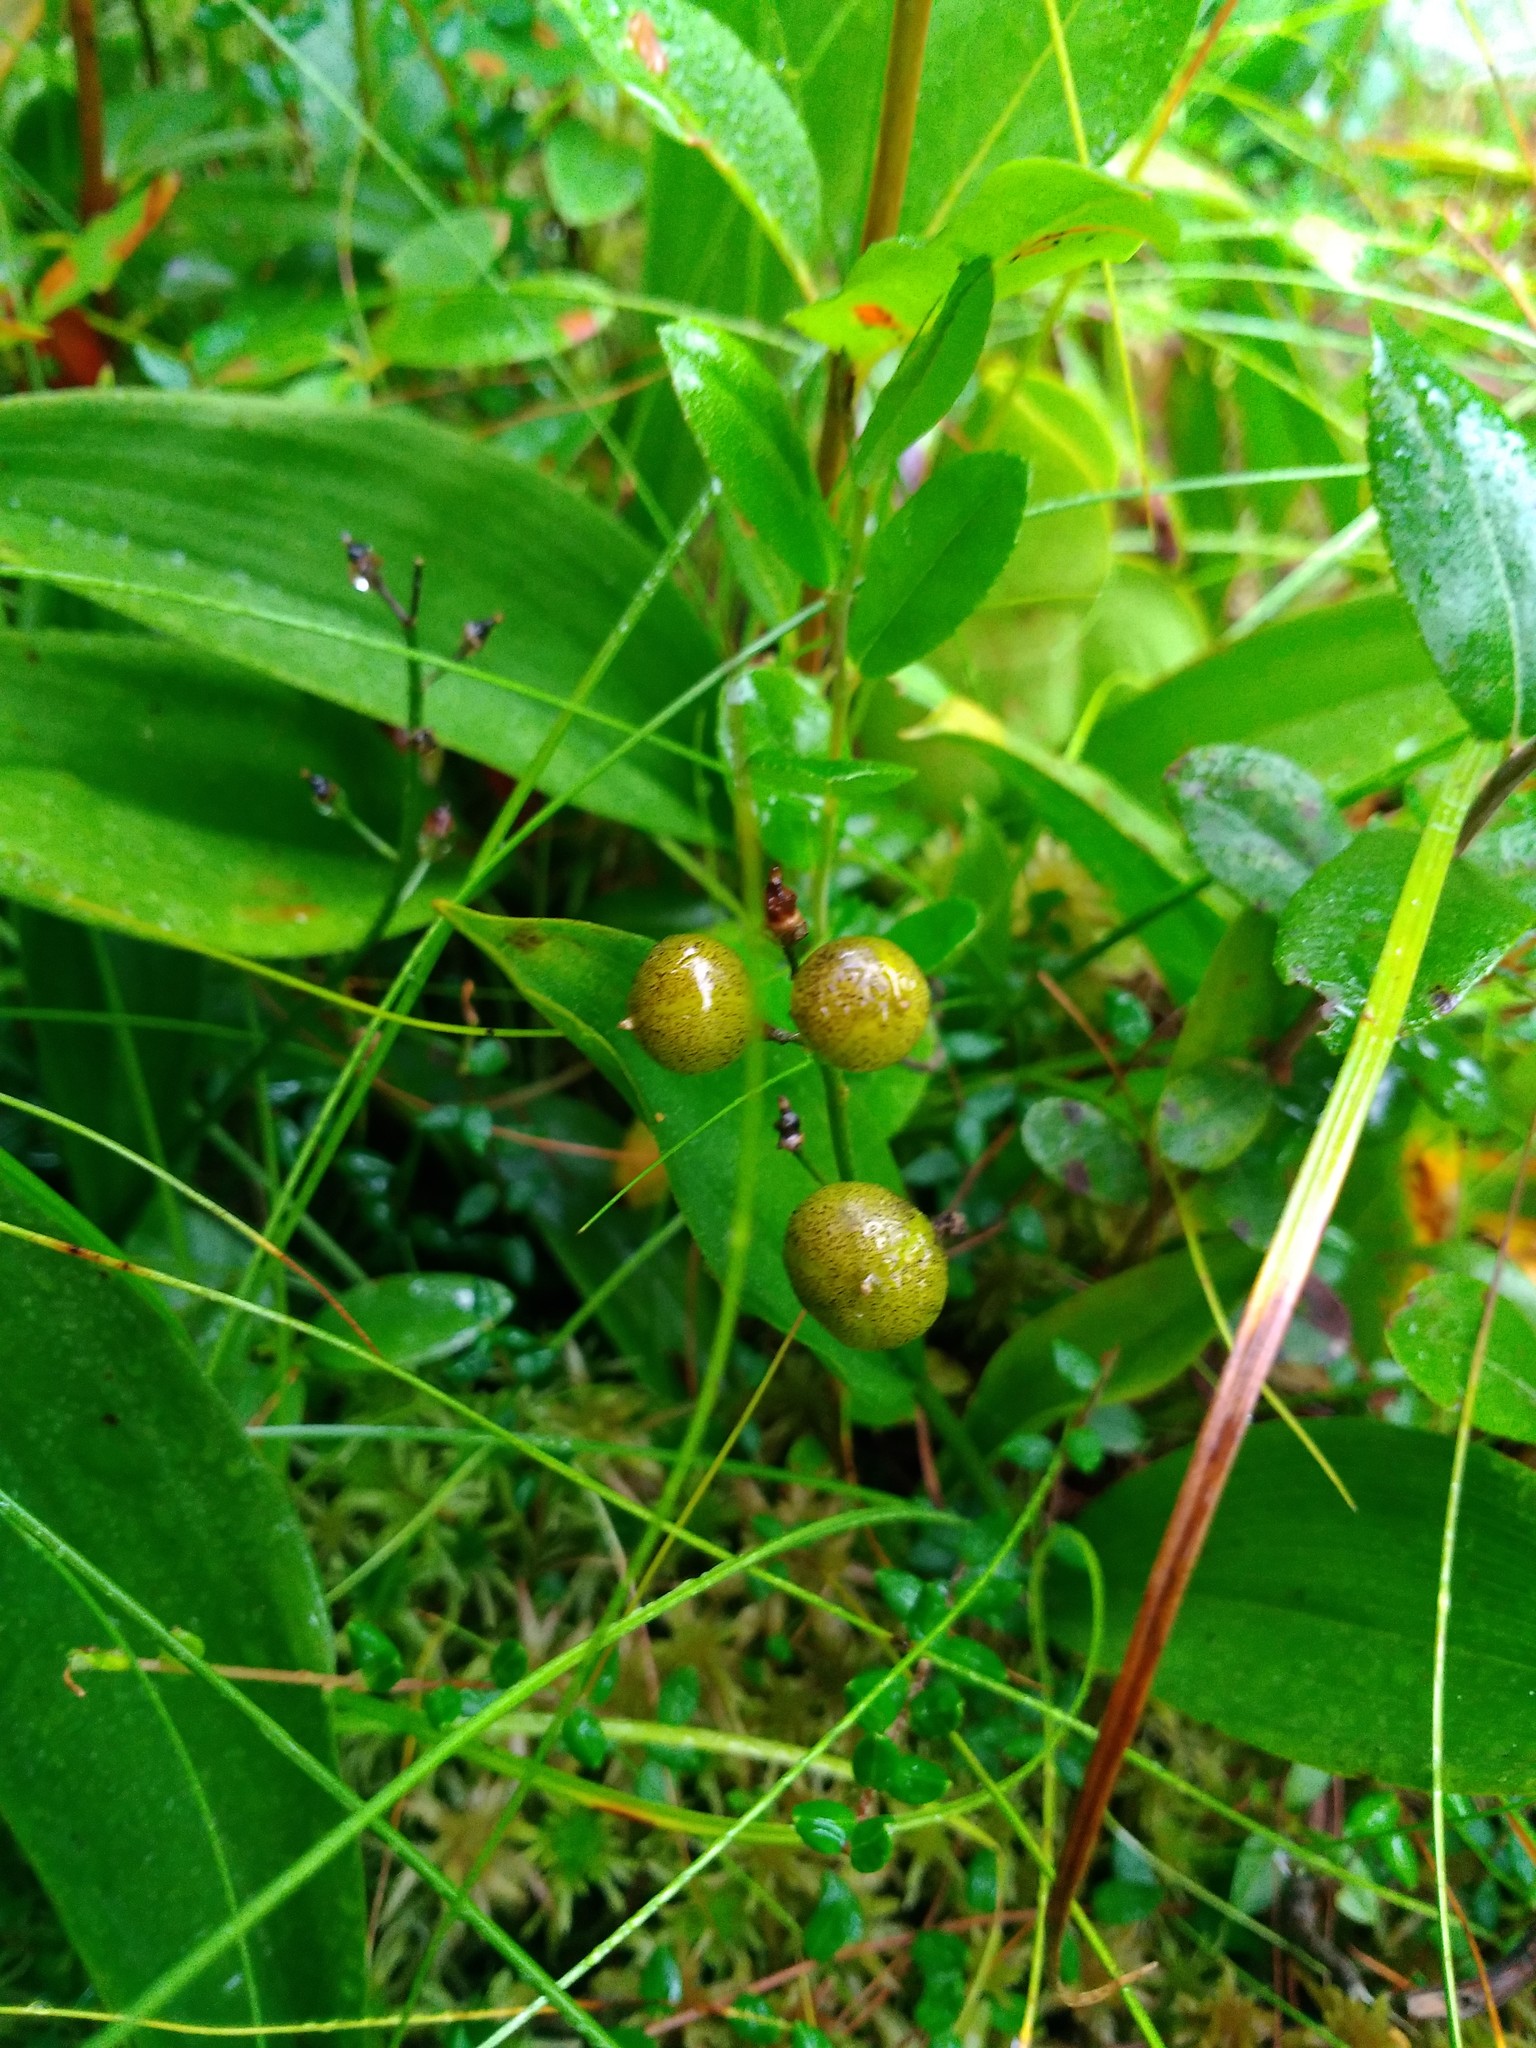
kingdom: Plantae
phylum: Tracheophyta
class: Liliopsida
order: Asparagales
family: Asparagaceae
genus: Maianthemum
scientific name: Maianthemum trifolium
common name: Swamp false solomon's seal
